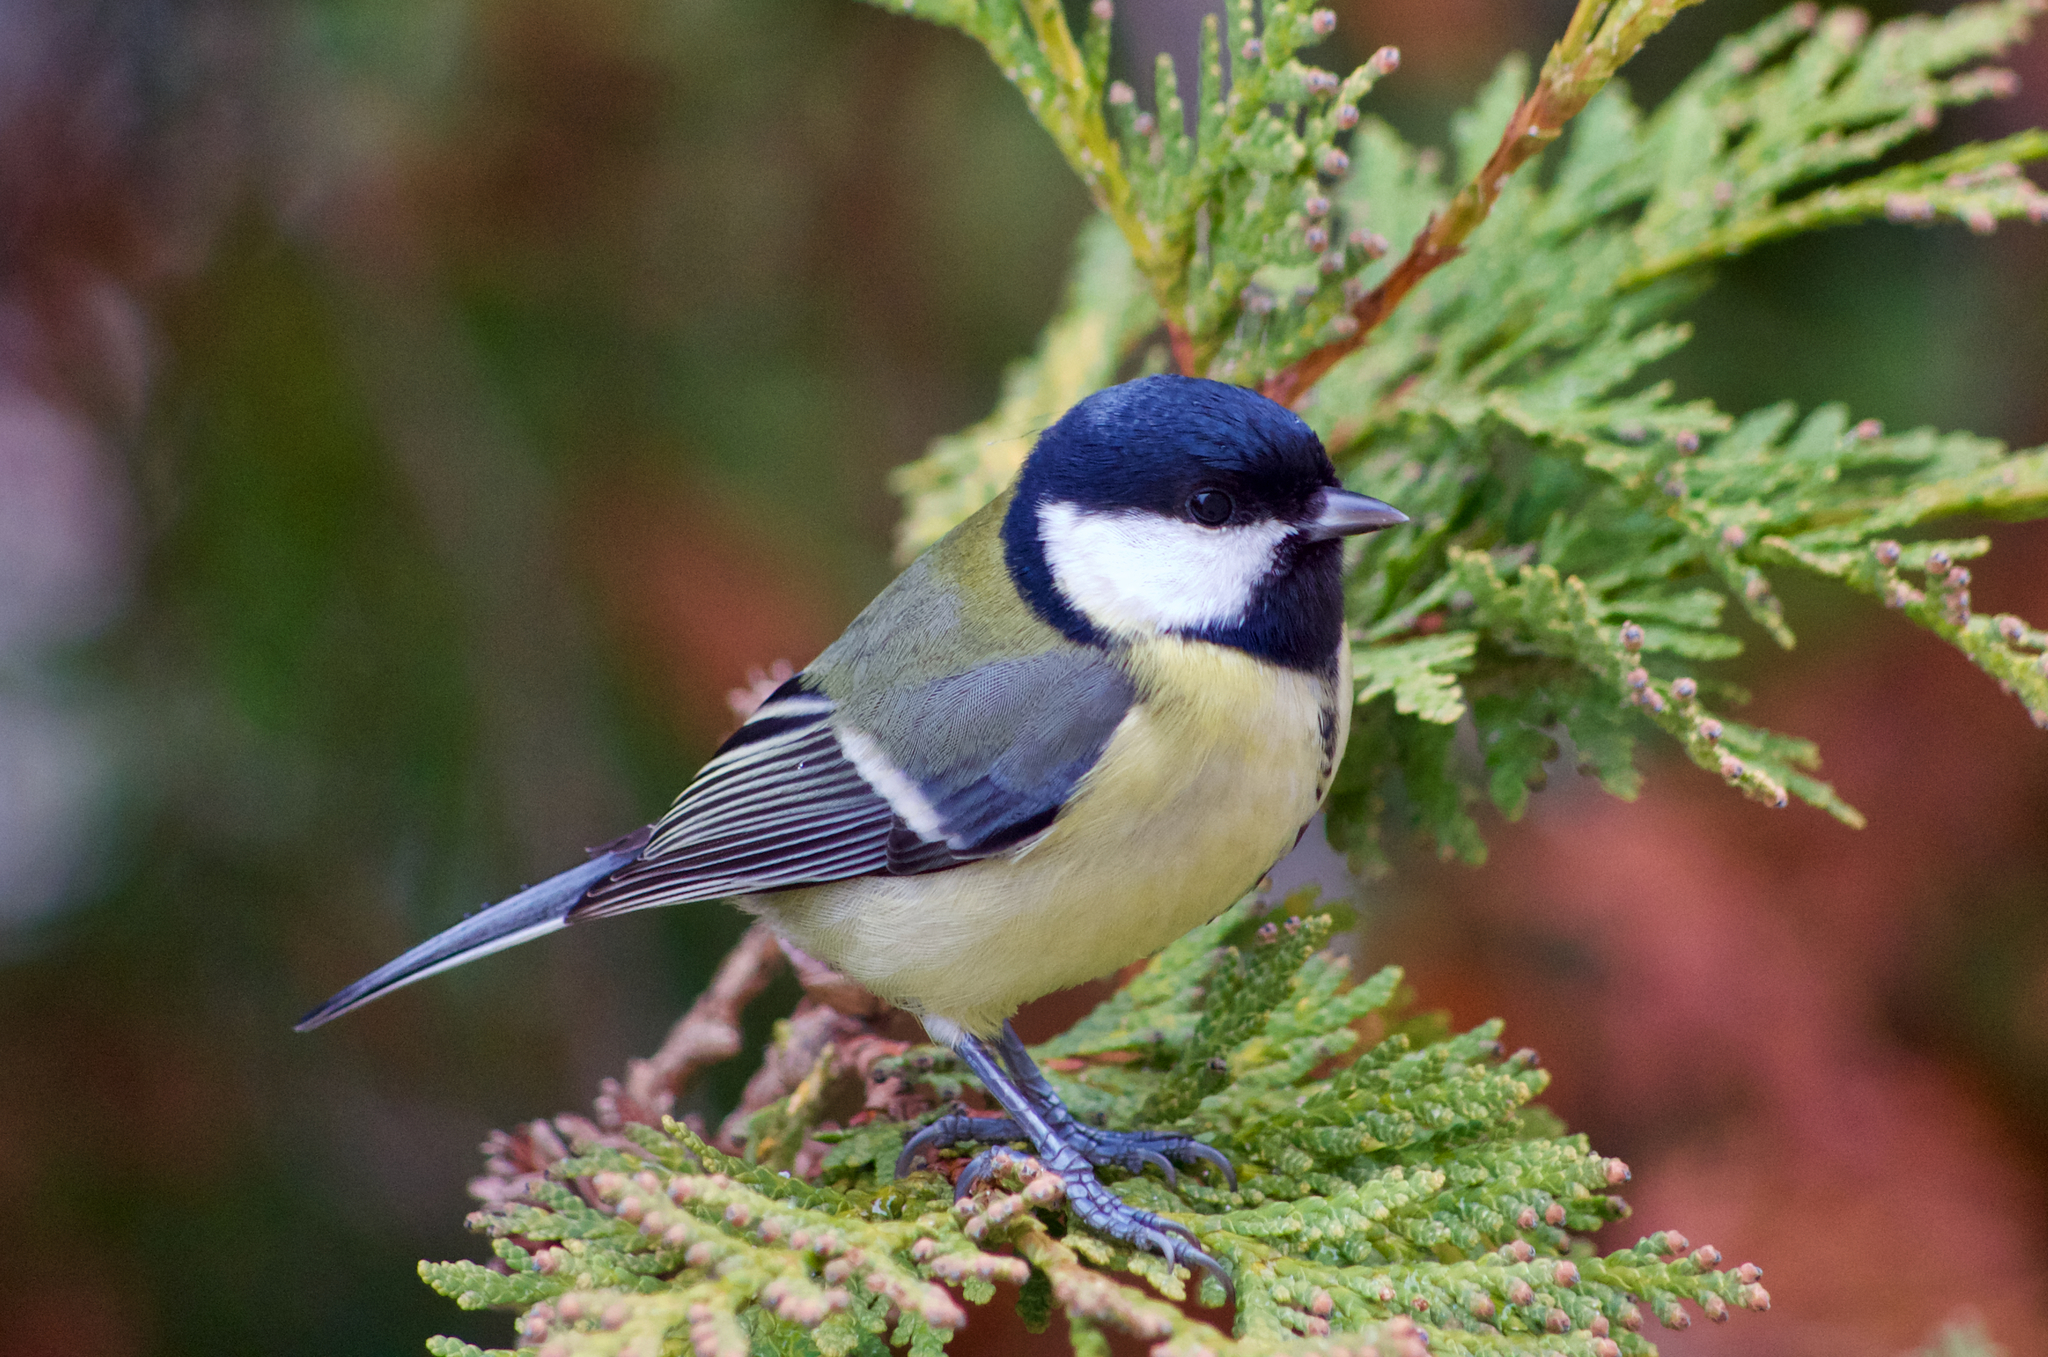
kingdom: Animalia
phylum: Chordata
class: Aves
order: Passeriformes
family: Paridae
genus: Parus
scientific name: Parus major
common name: Great tit
